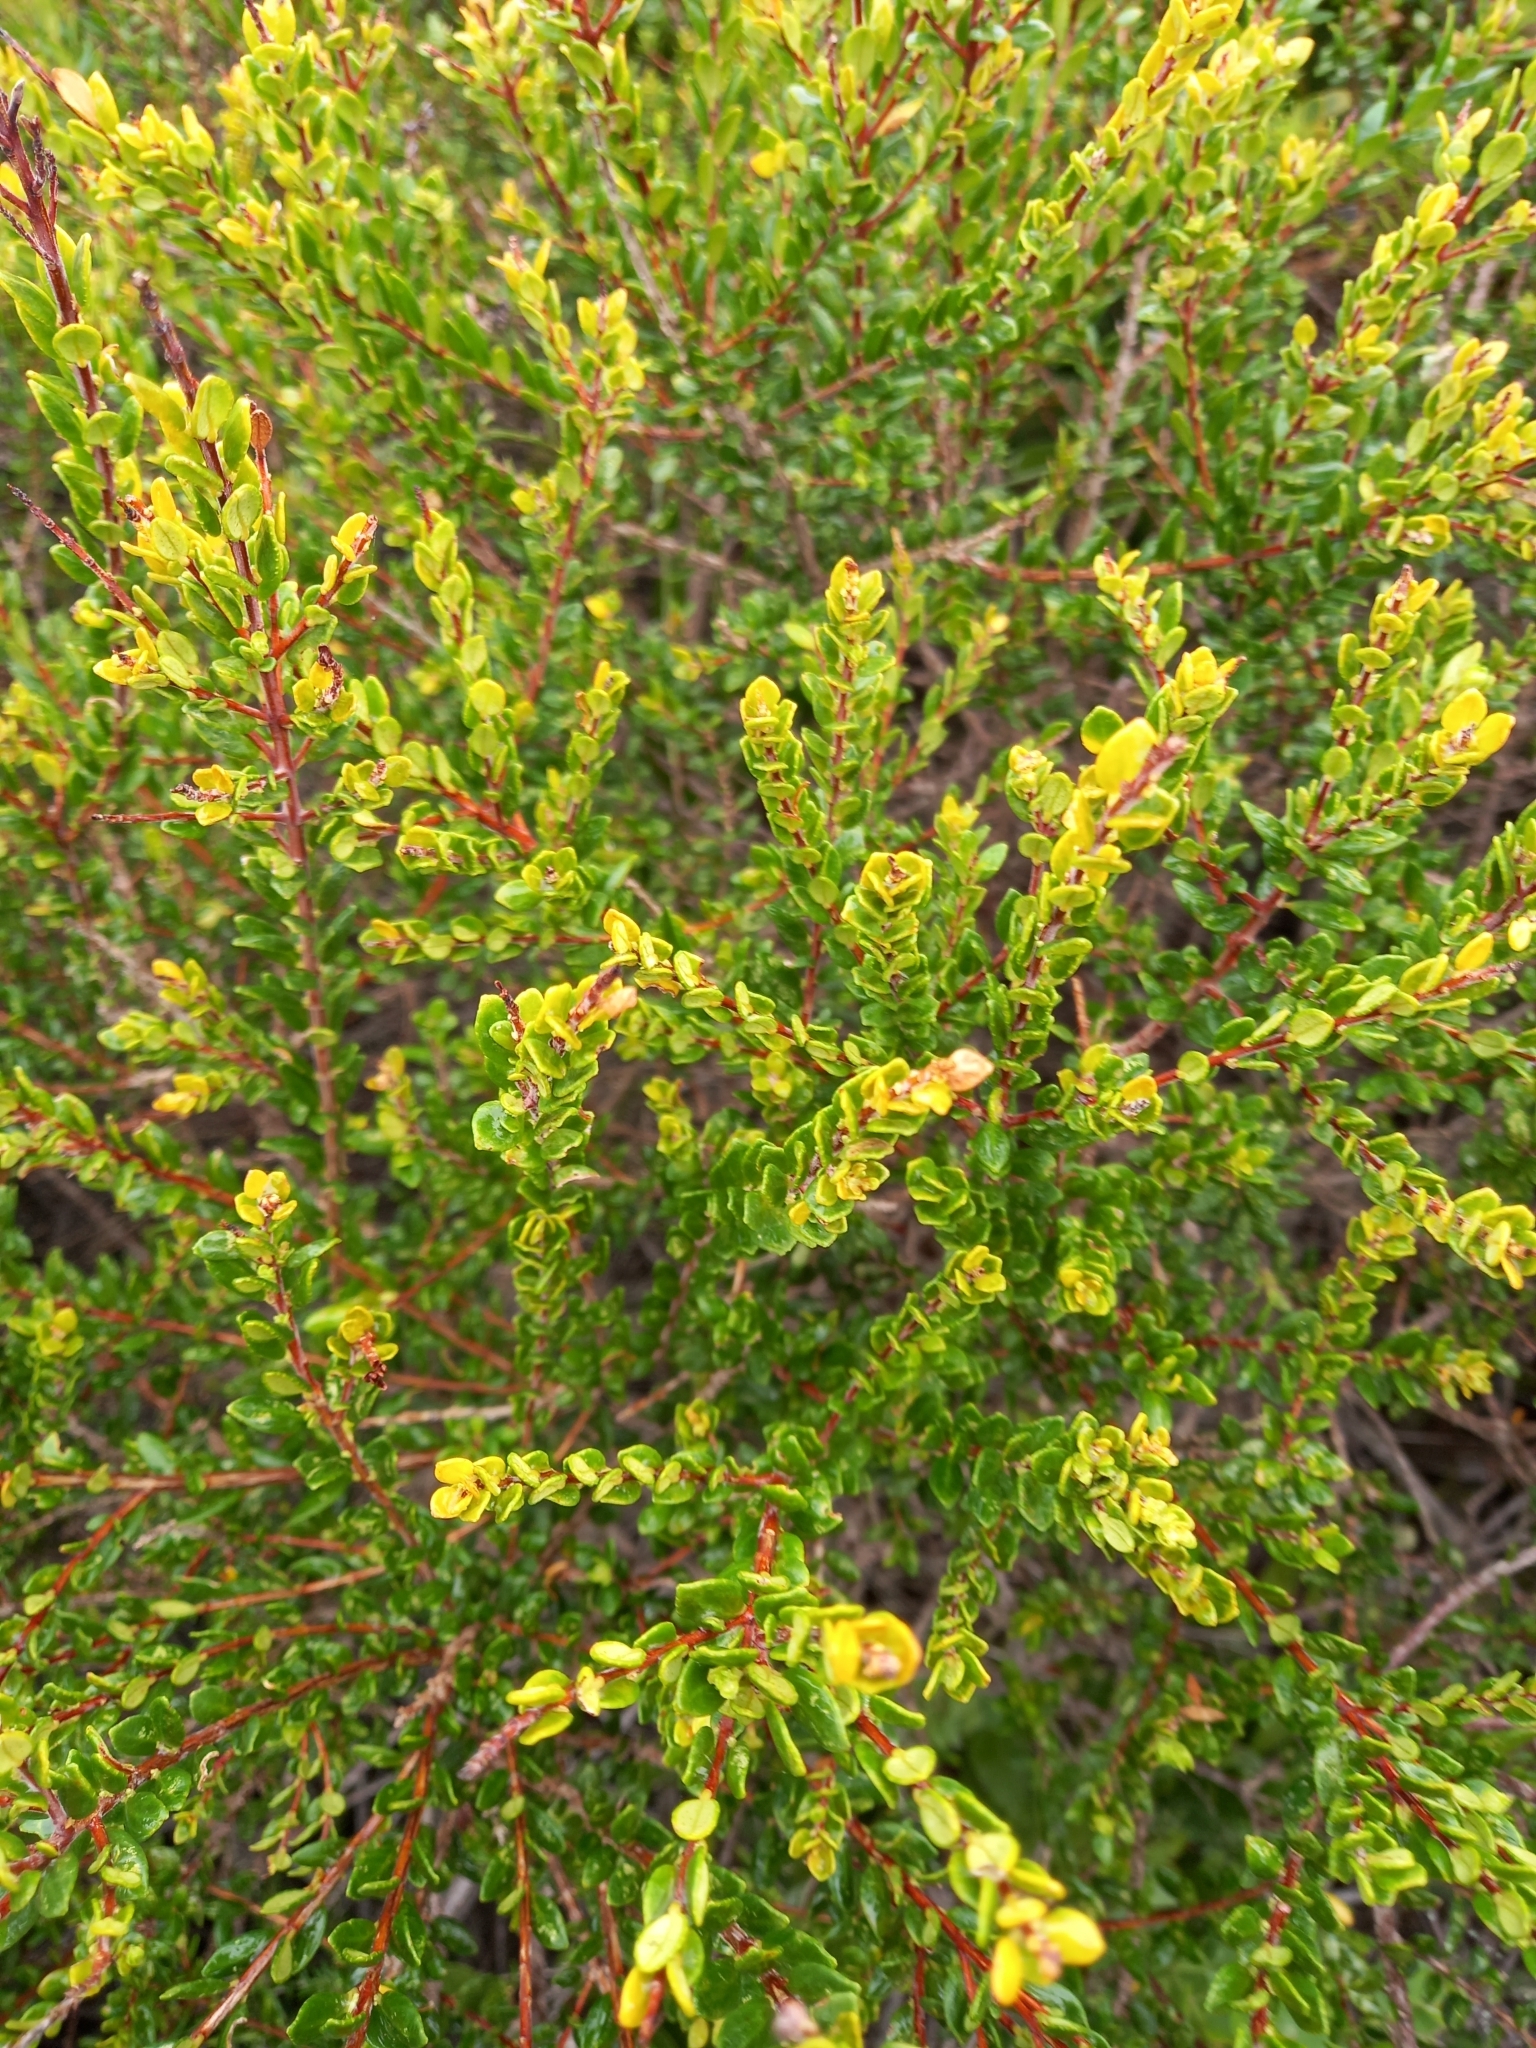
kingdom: Plantae
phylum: Tracheophyta
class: Magnoliopsida
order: Sapindales
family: Rutaceae
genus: Agathosma
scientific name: Agathosma ovata
